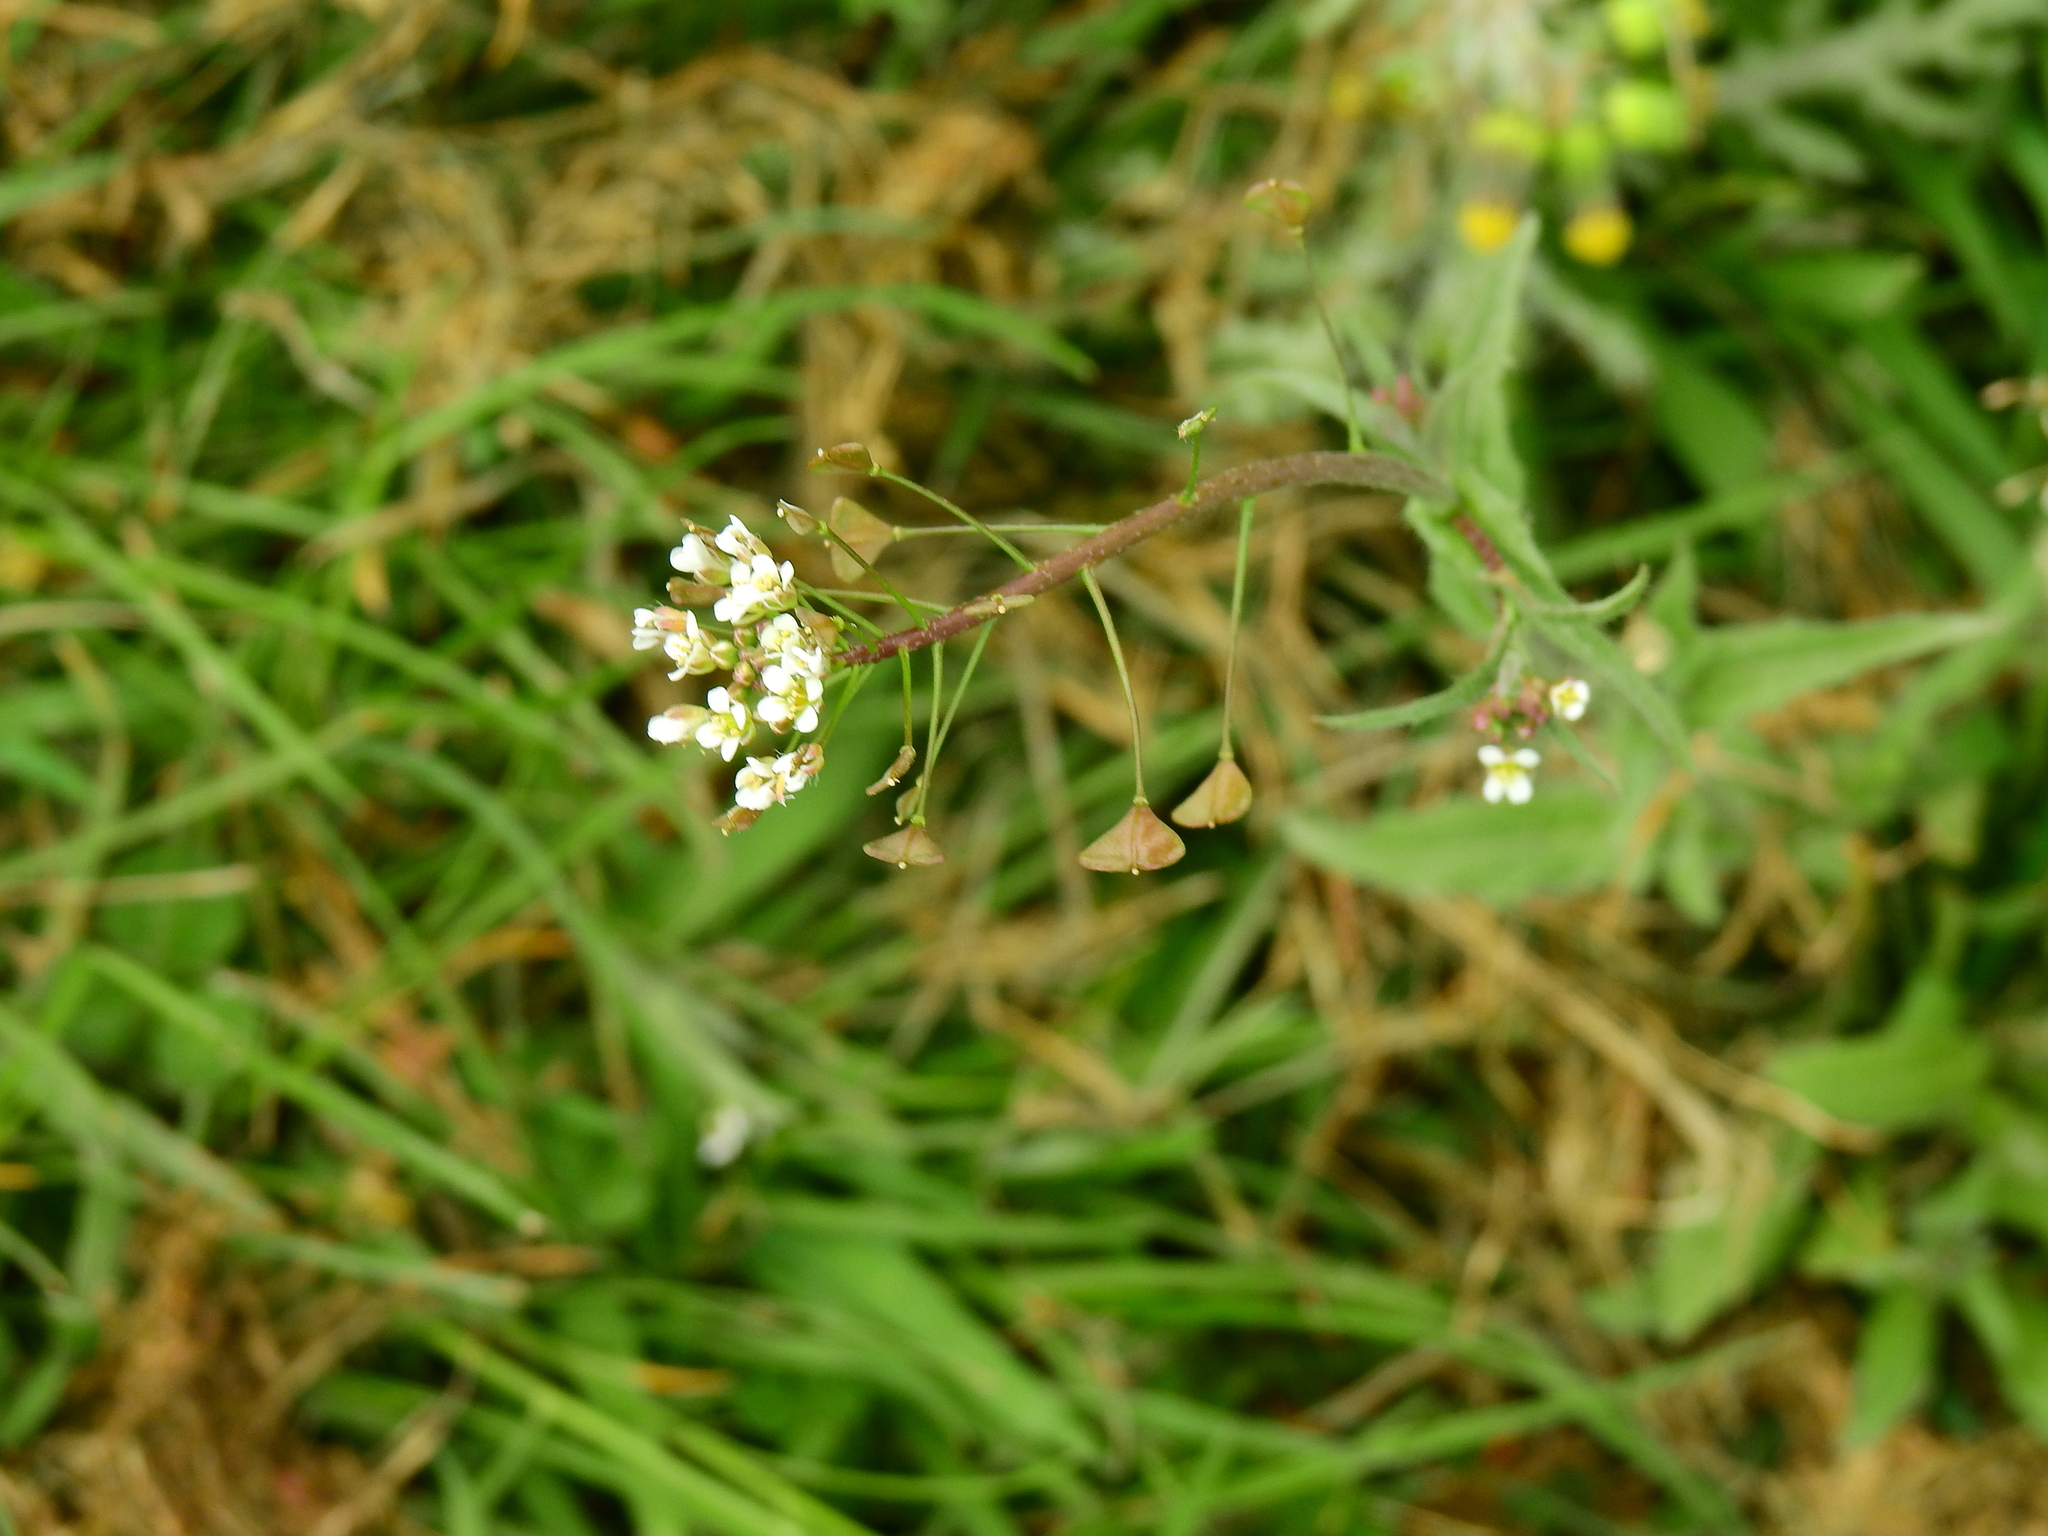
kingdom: Plantae
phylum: Tracheophyta
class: Magnoliopsida
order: Brassicales
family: Brassicaceae
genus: Capsella
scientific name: Capsella bursa-pastoris
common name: Shepherd's purse
